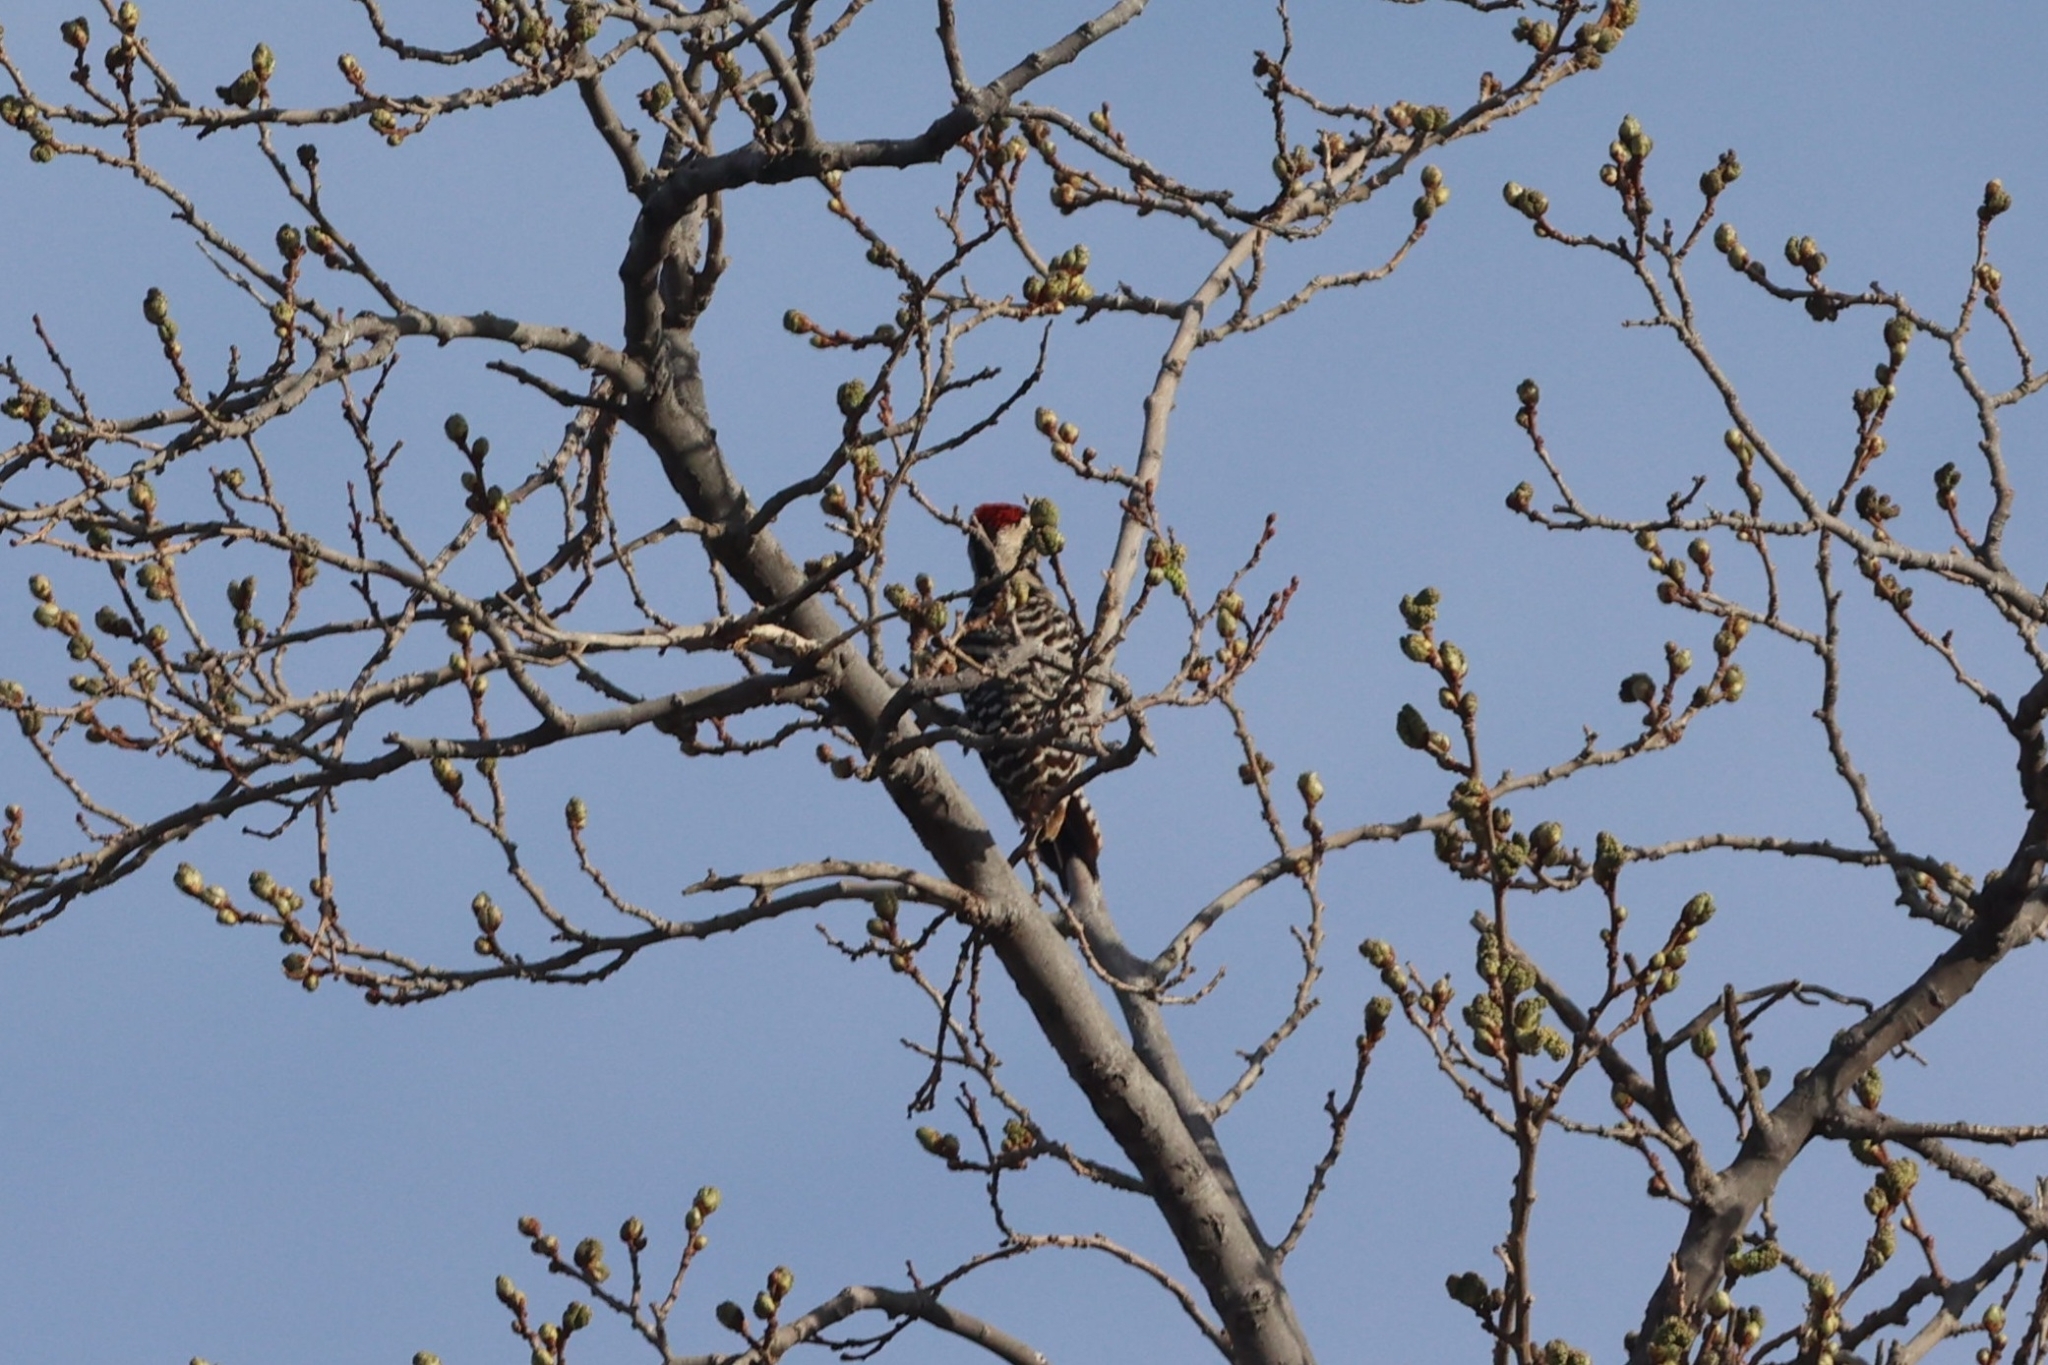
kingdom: Animalia
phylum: Chordata
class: Aves
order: Piciformes
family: Picidae
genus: Dryobates
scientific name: Dryobates scalaris
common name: Ladder-backed woodpecker
